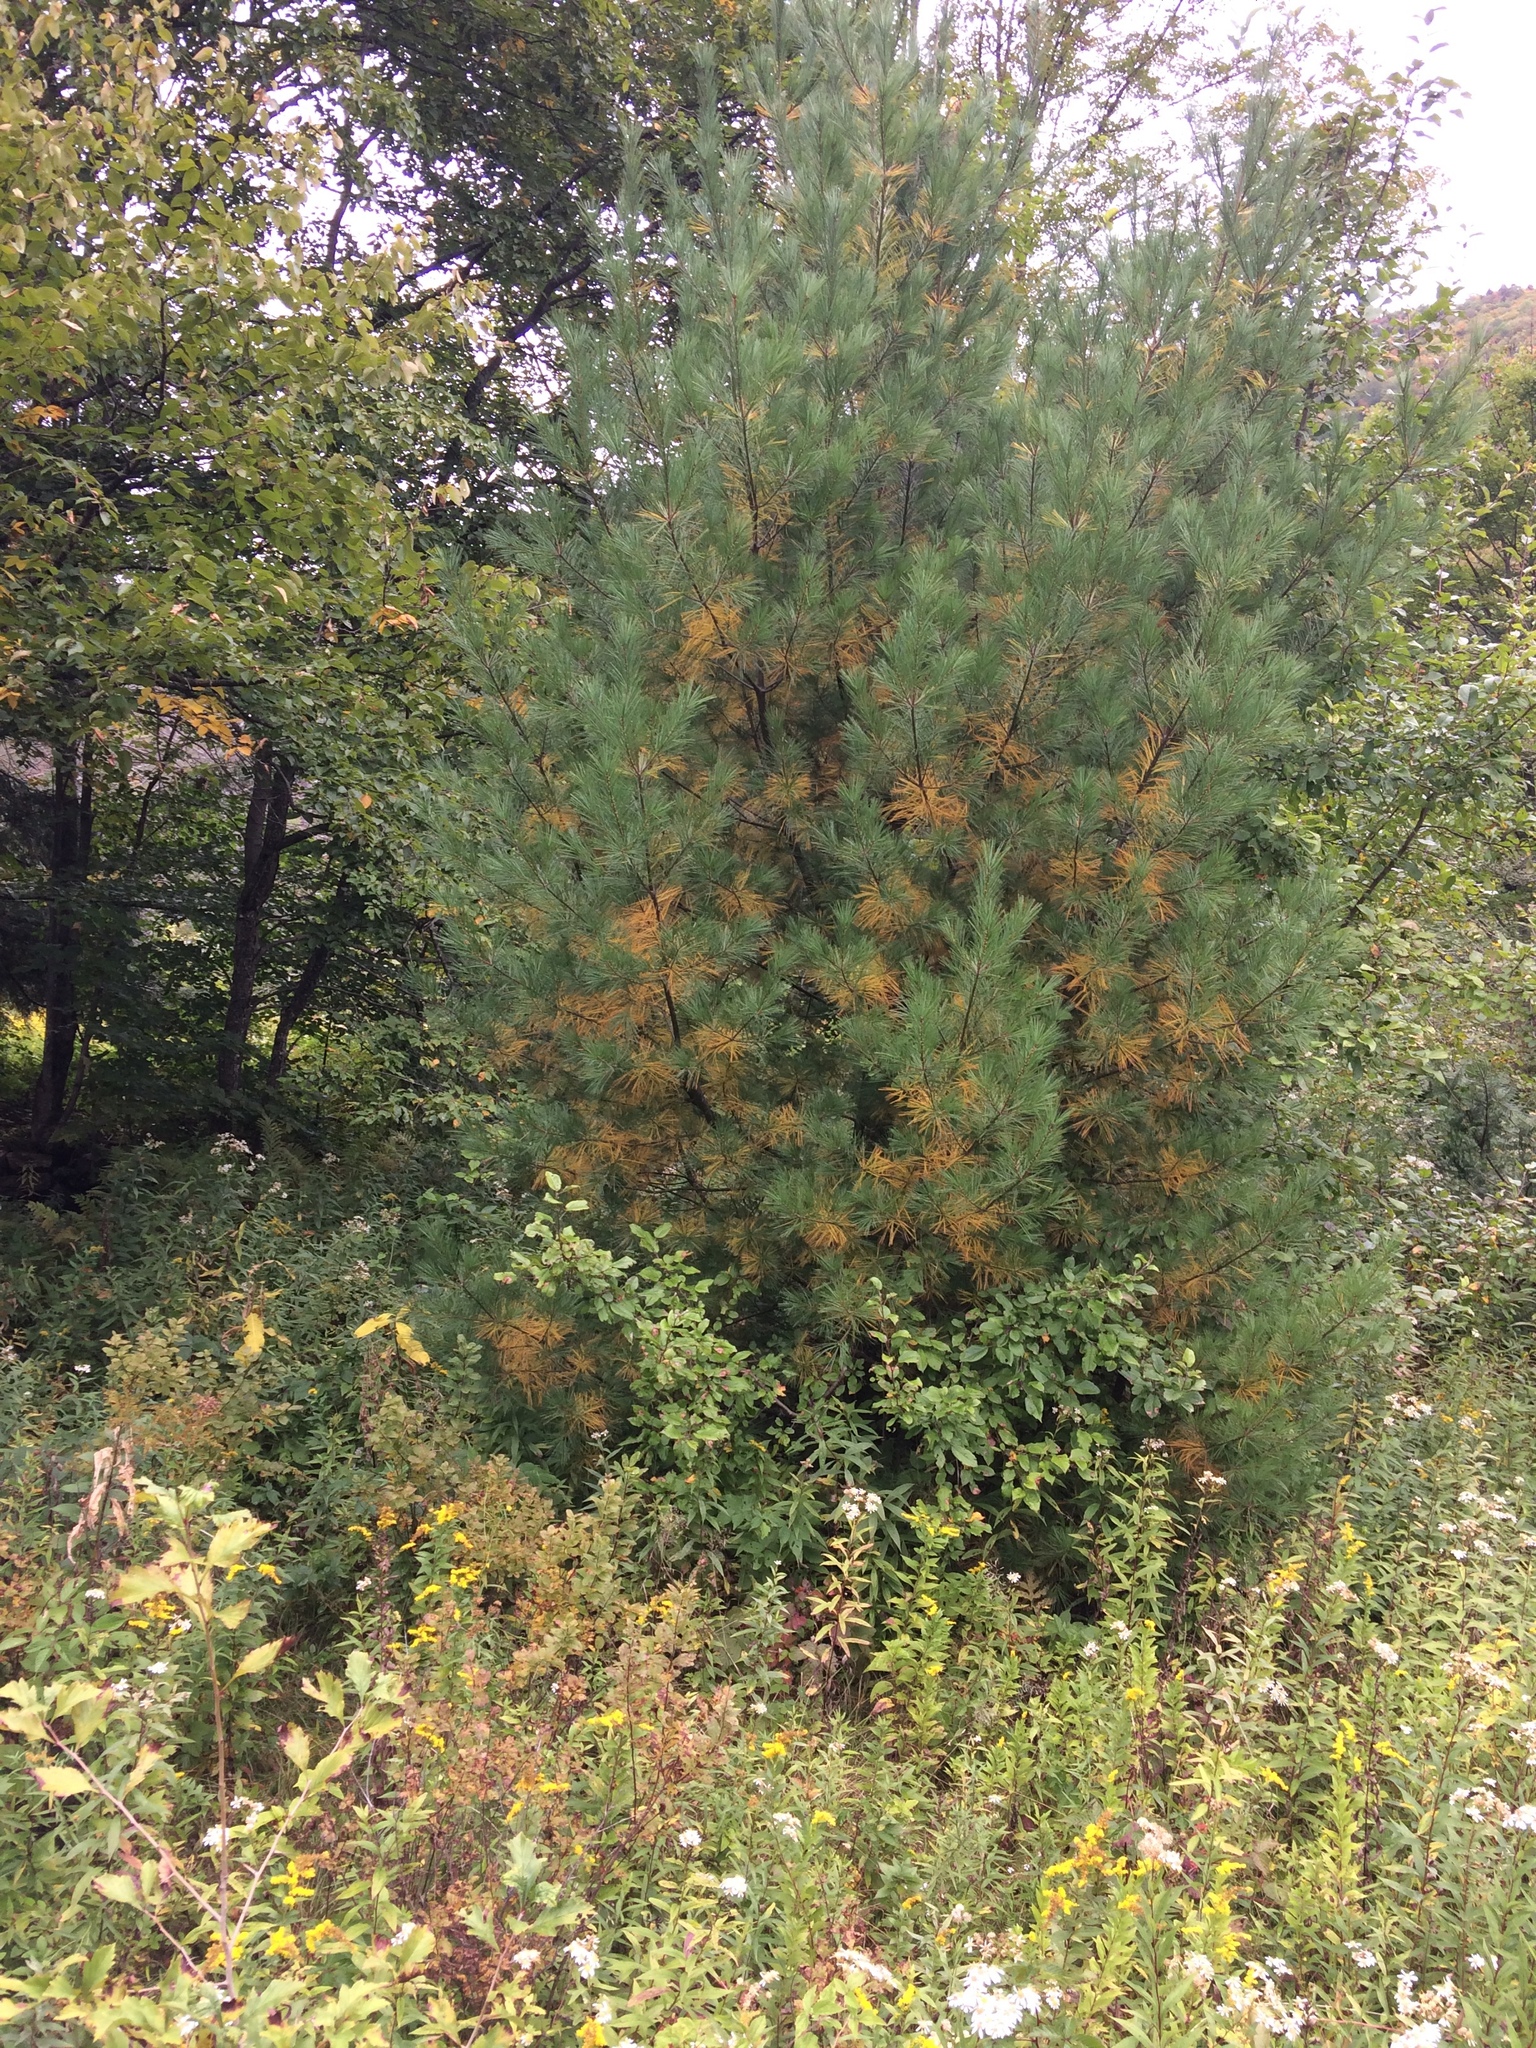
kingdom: Plantae
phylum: Tracheophyta
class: Pinopsida
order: Pinales
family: Pinaceae
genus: Pinus
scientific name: Pinus strobus
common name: Weymouth pine
